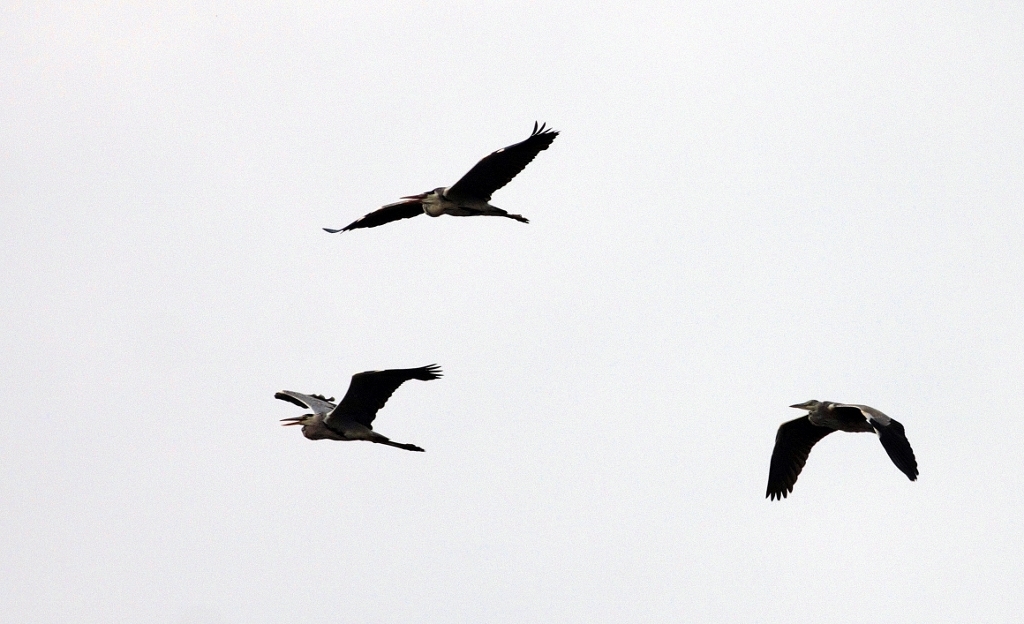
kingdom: Animalia
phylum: Chordata
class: Aves
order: Pelecaniformes
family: Ardeidae
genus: Ardea
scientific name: Ardea cinerea
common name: Grey heron
